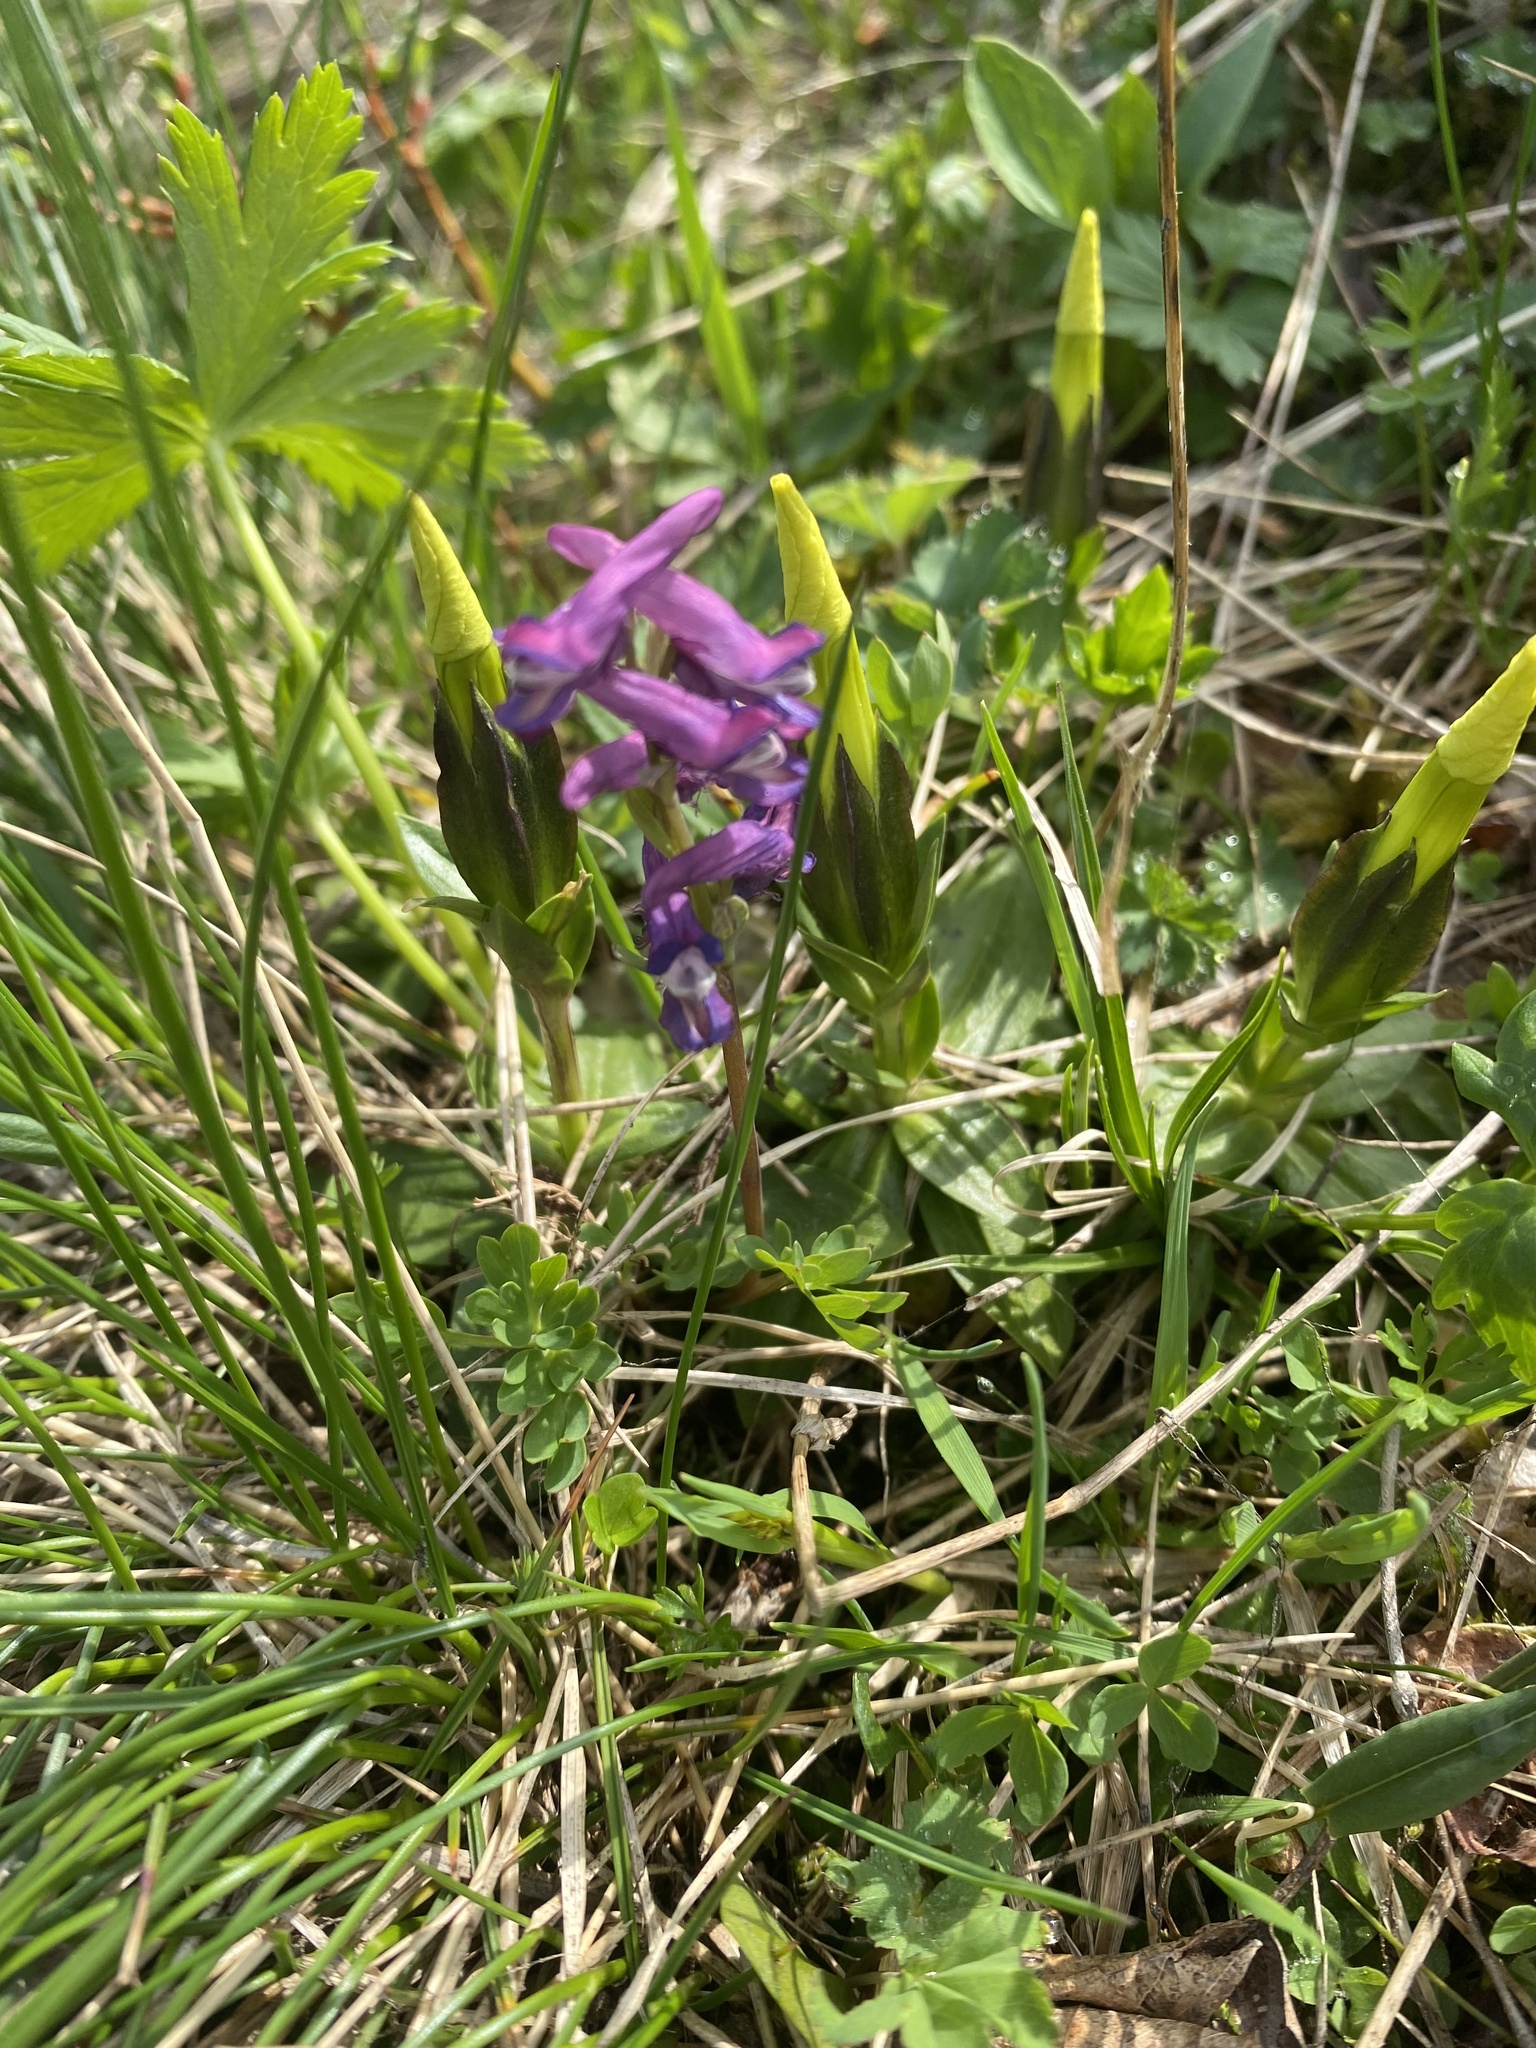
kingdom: Plantae
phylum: Tracheophyta
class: Magnoliopsida
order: Gentianales
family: Gentianaceae
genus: Gentiana
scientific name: Gentiana verna
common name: Spring gentian
